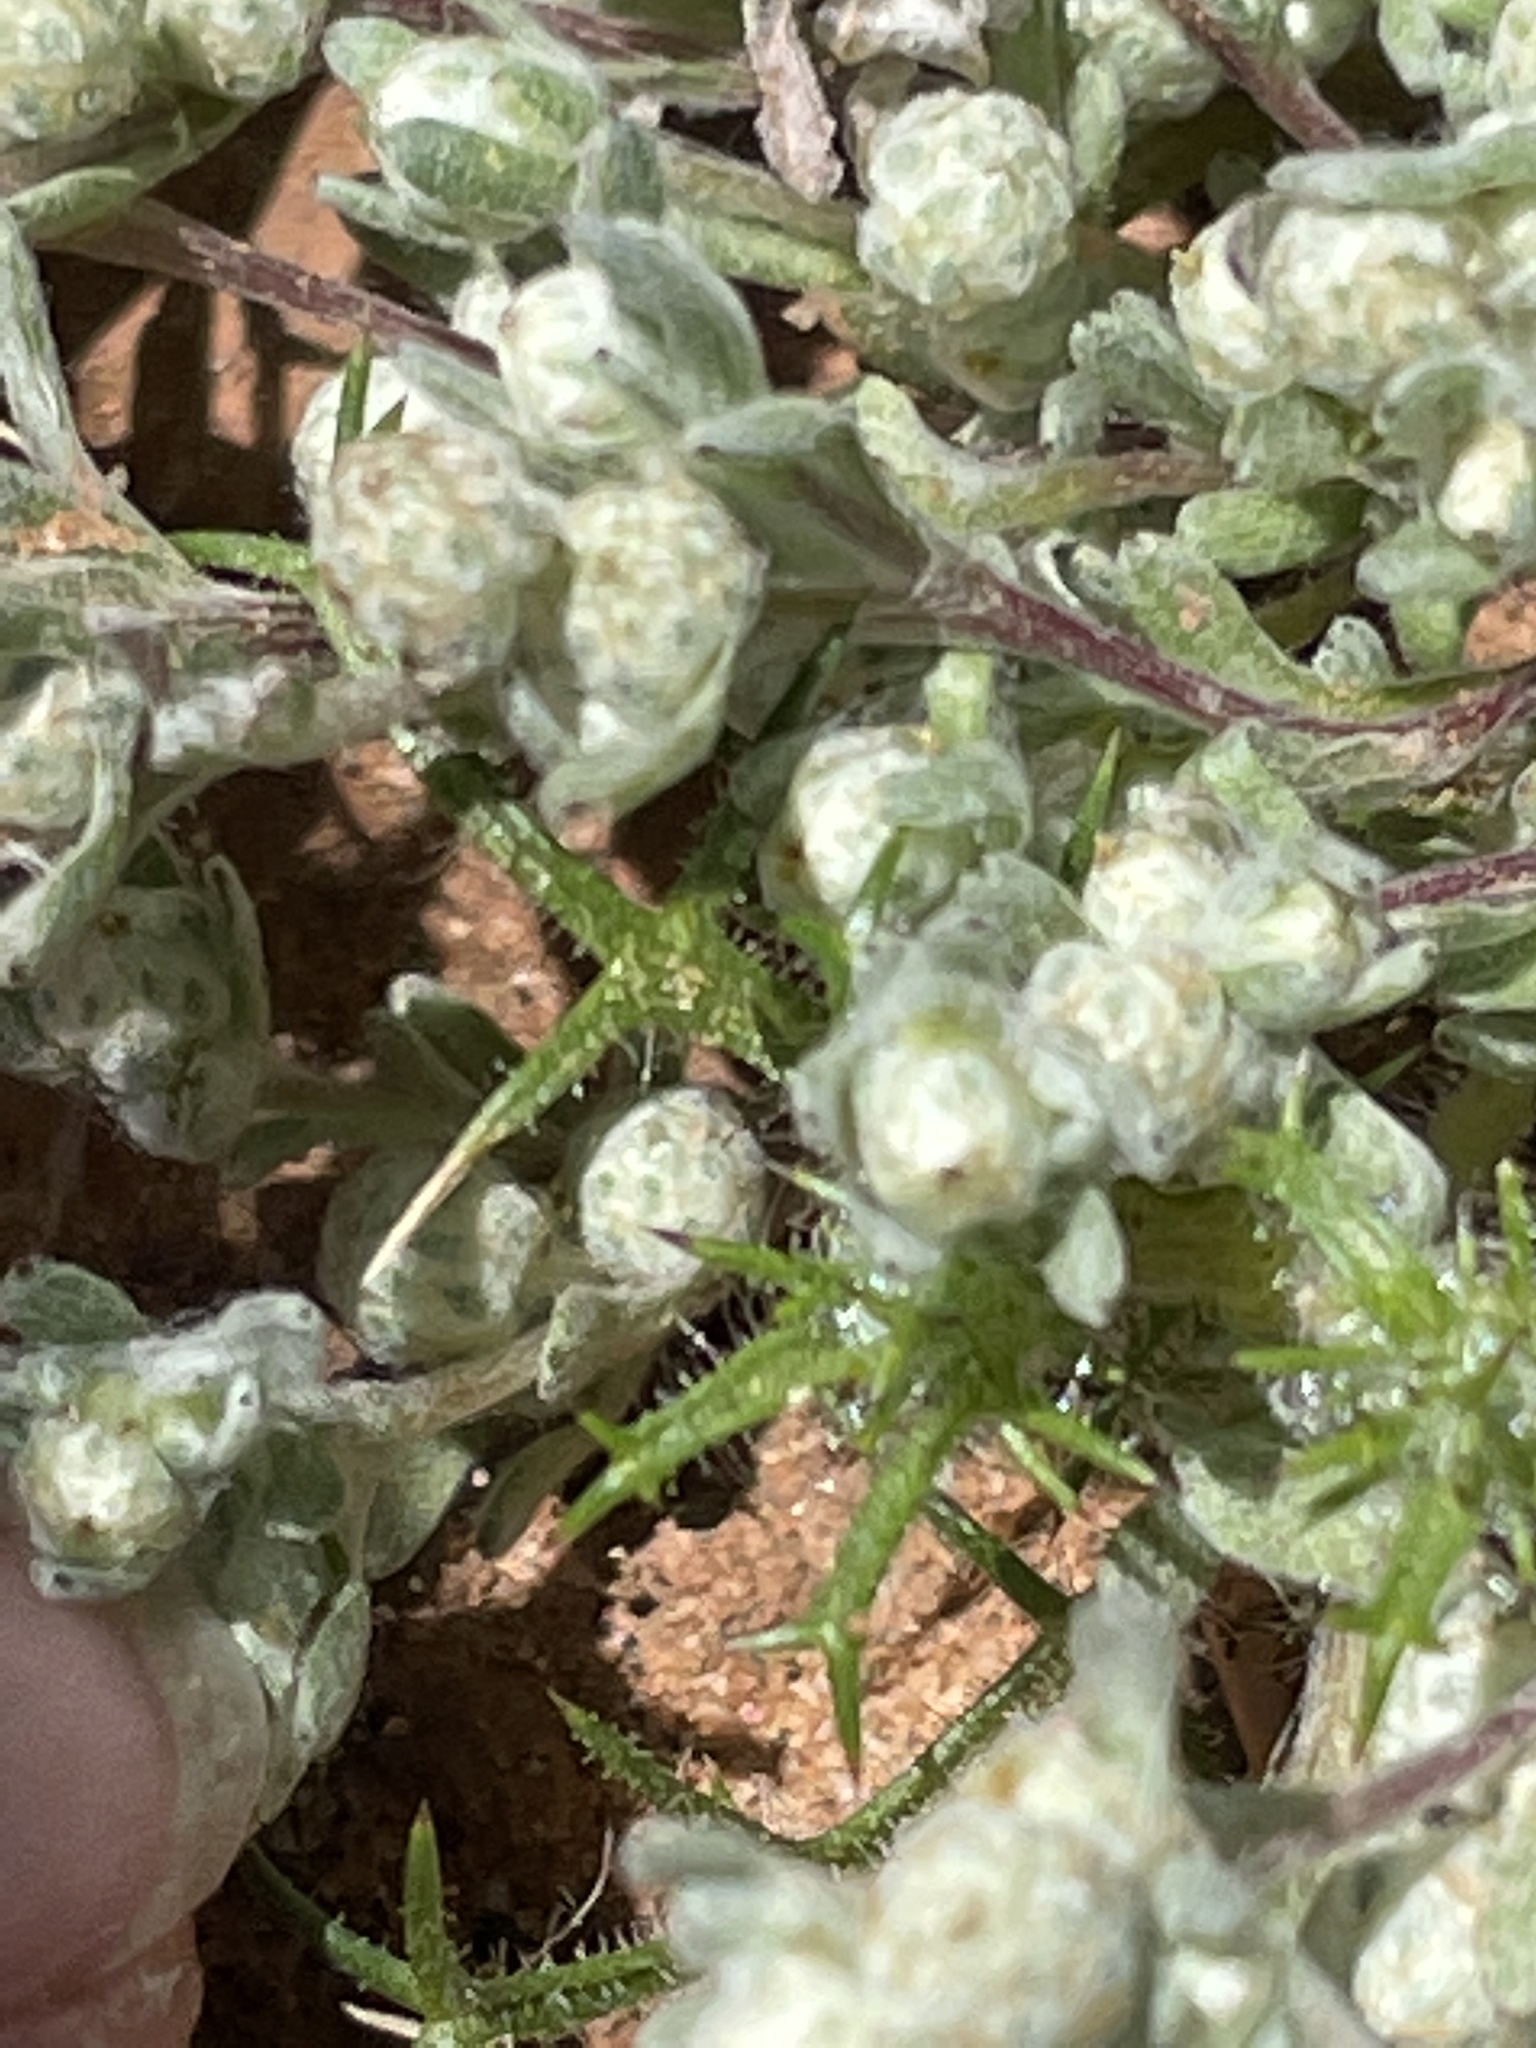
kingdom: Plantae
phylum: Tracheophyta
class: Magnoliopsida
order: Asterales
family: Asteraceae
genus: Stylocline
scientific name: Stylocline gnaphaloides
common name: Everlasting nest-straw
